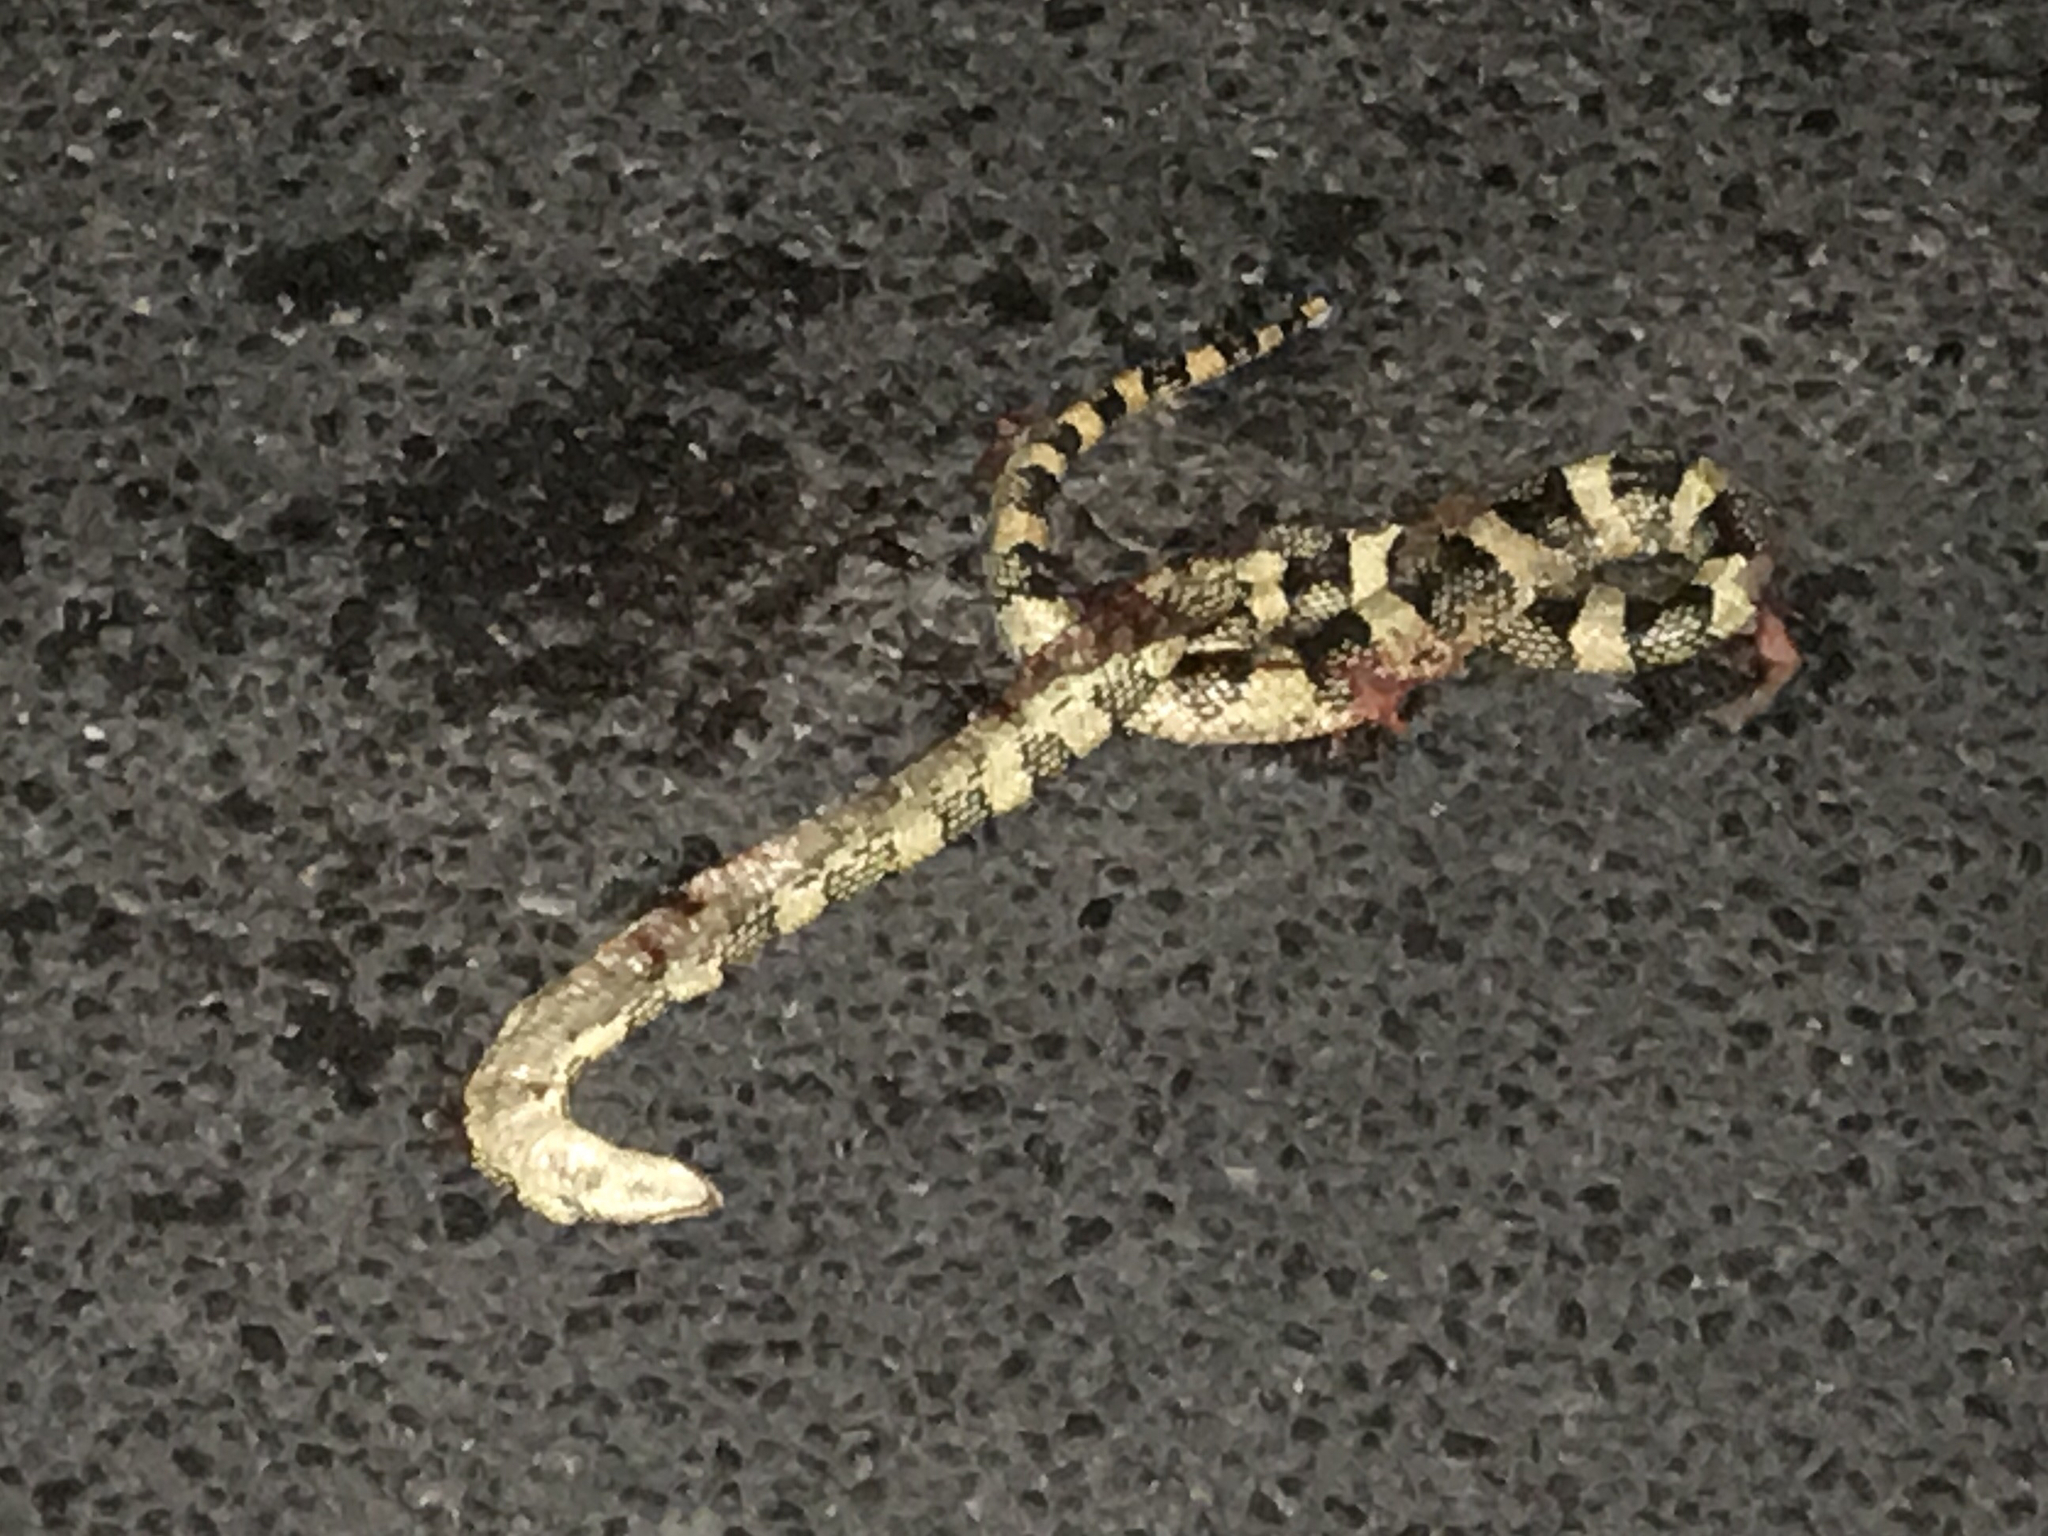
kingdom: Animalia
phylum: Chordata
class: Squamata
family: Colubridae
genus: Rhinocheilus
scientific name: Rhinocheilus lecontei
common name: Longnose snake
